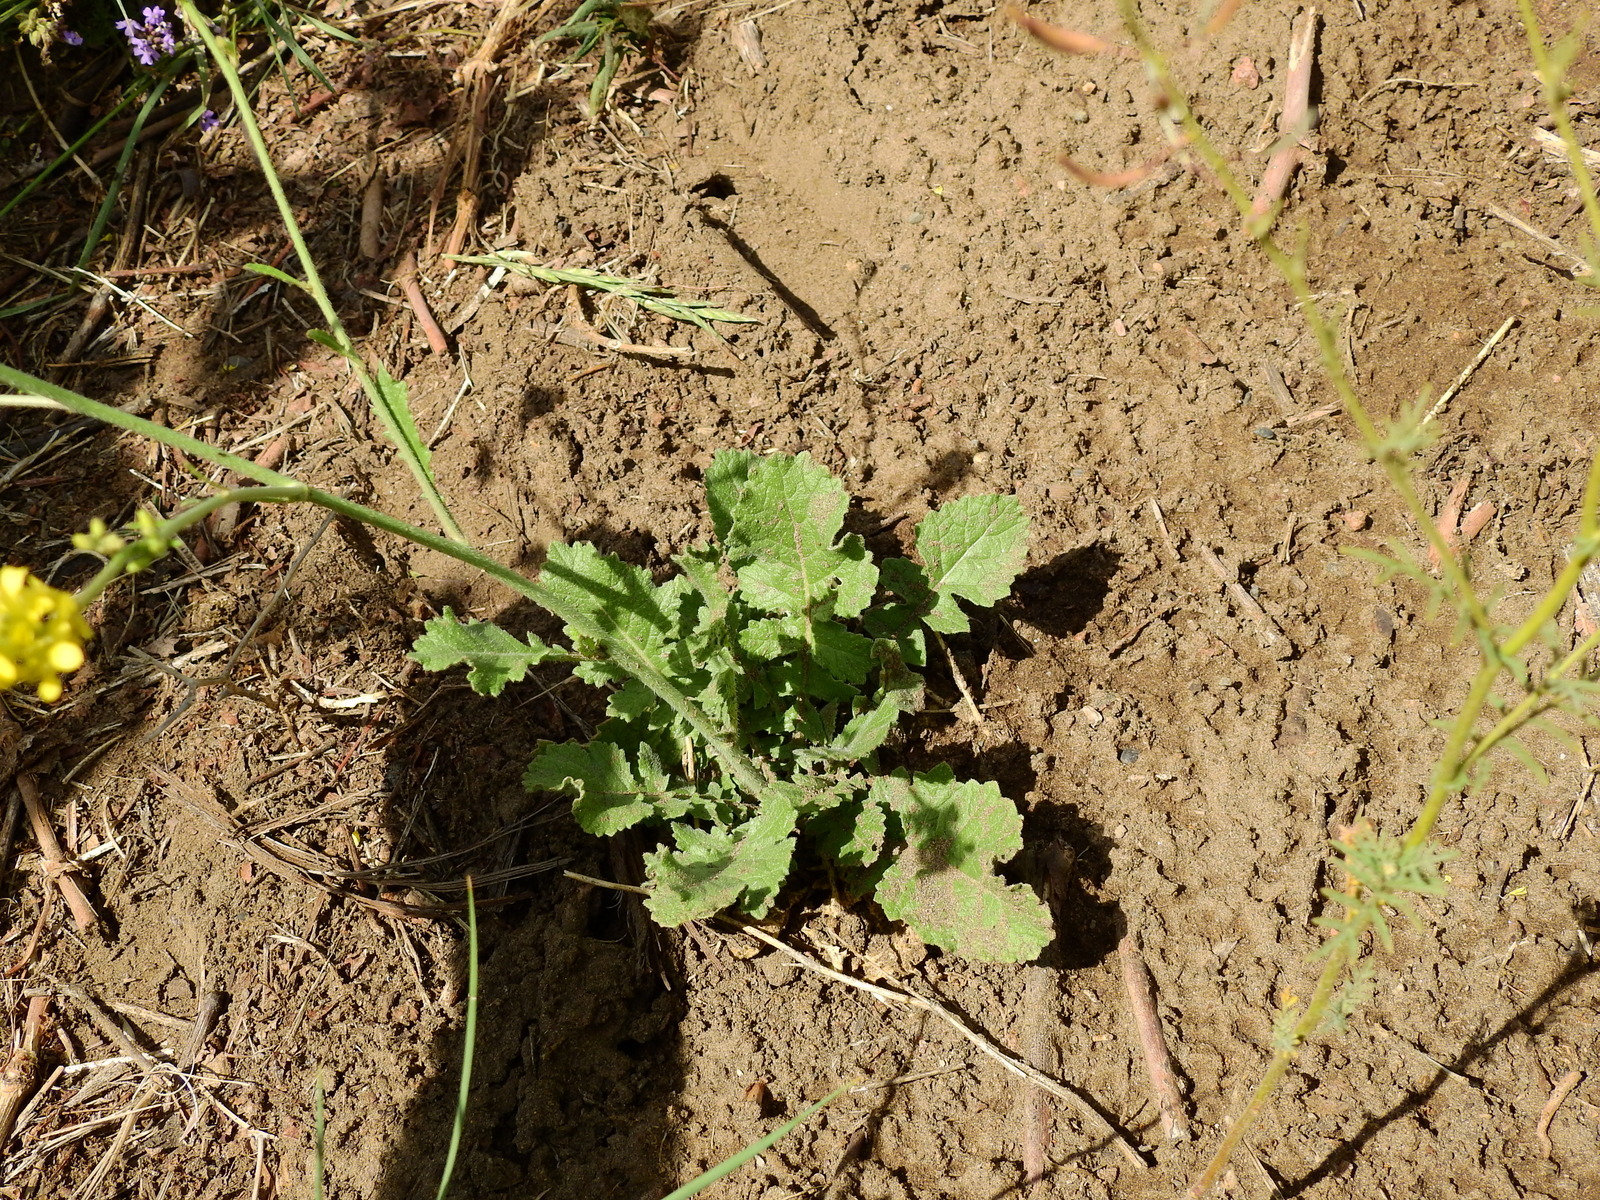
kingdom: Plantae
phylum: Tracheophyta
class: Magnoliopsida
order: Brassicales
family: Brassicaceae
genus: Hirschfeldia
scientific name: Hirschfeldia incana
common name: Hoary mustard
